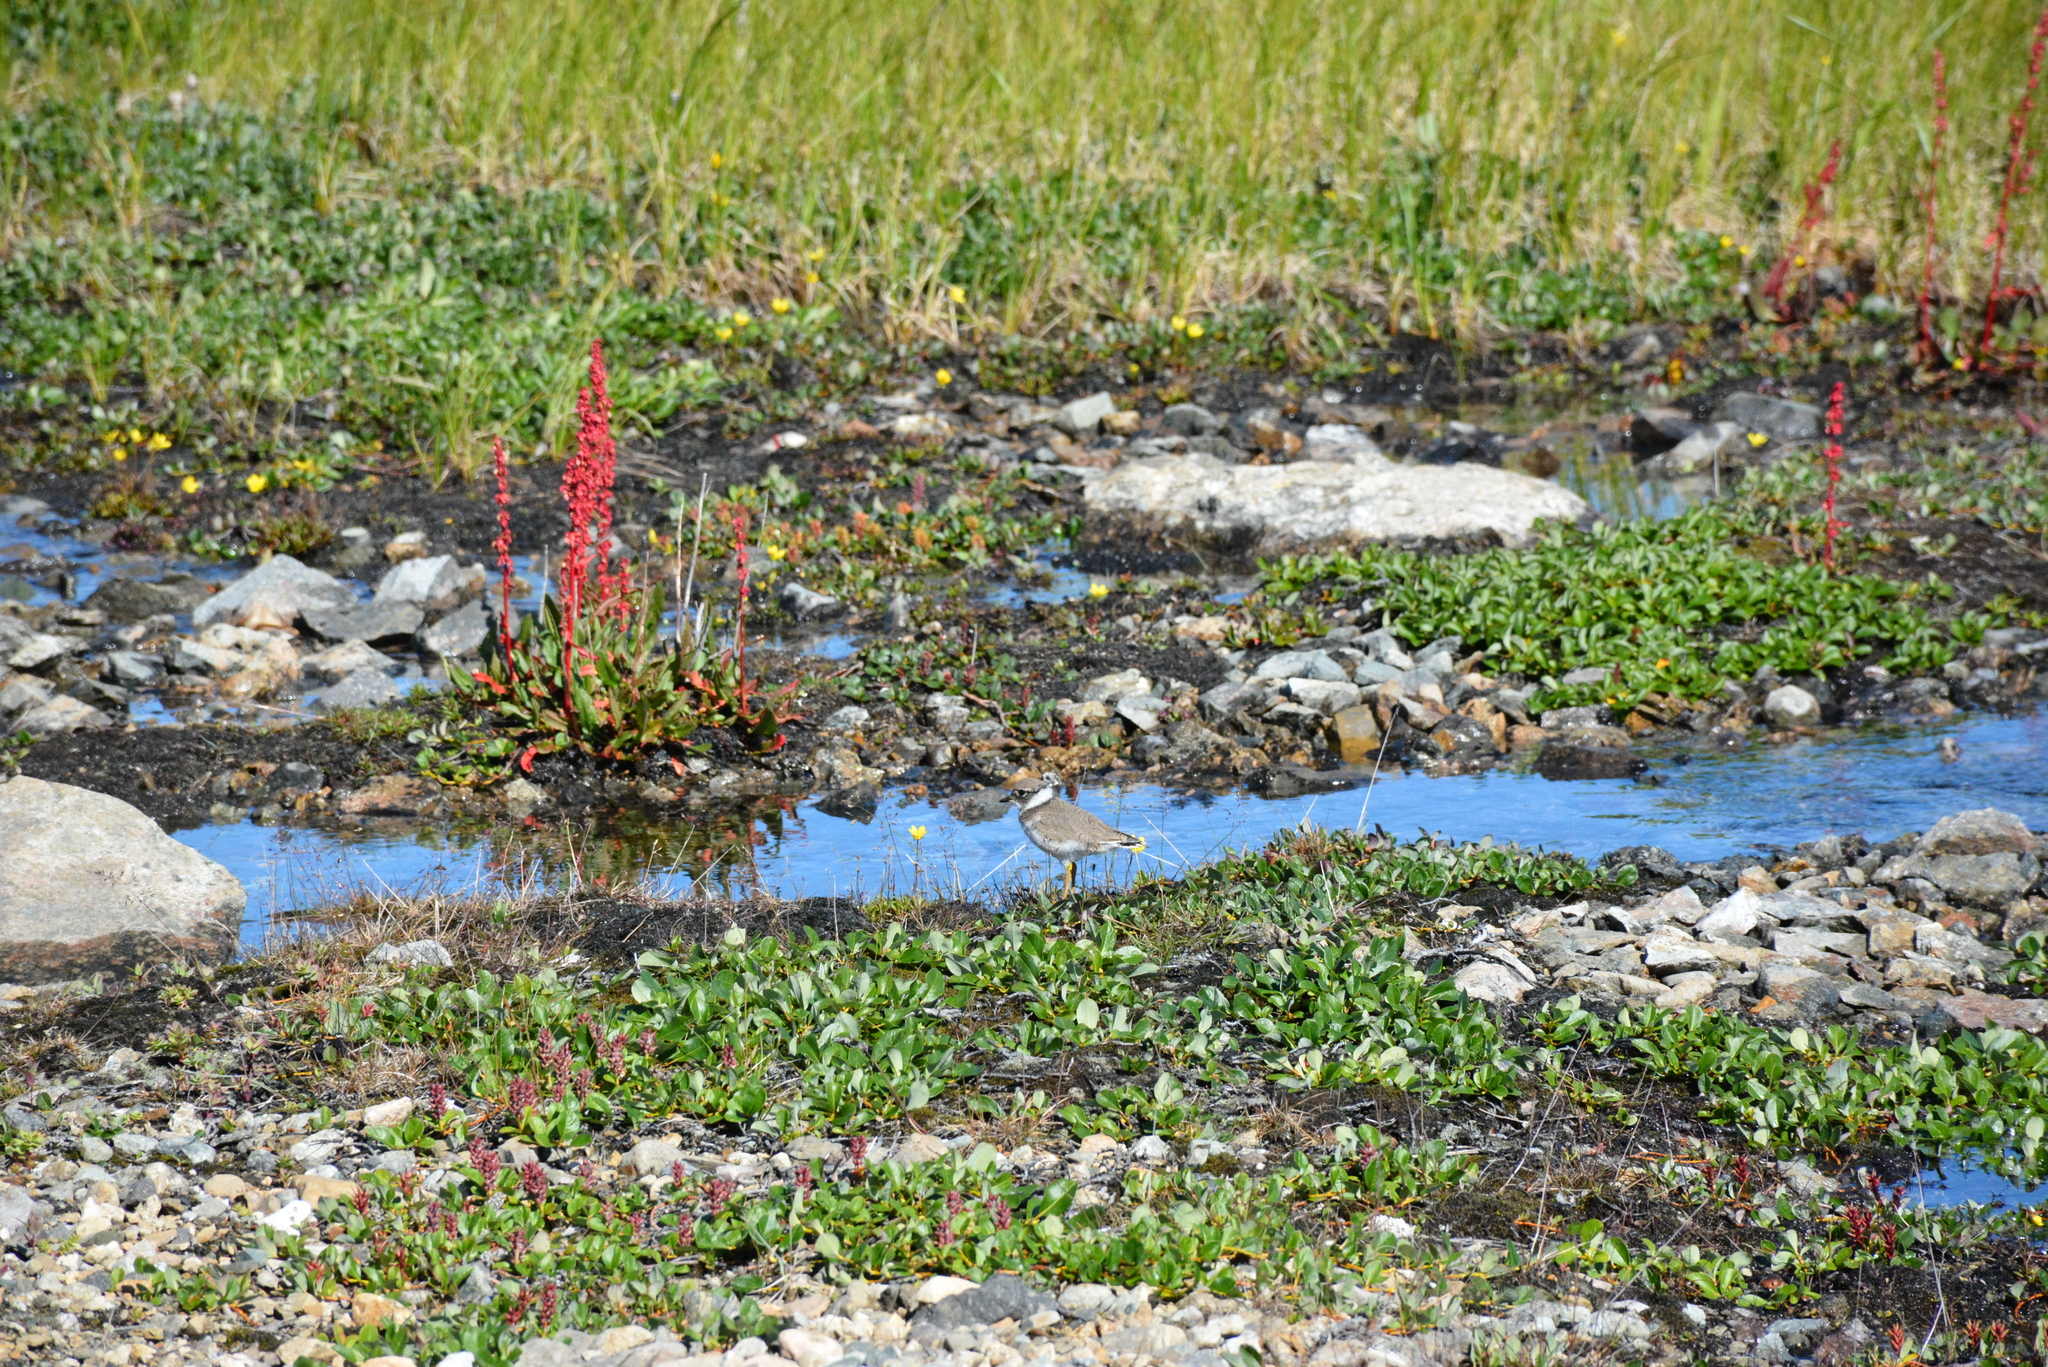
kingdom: Animalia
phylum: Chordata
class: Aves
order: Charadriiformes
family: Charadriidae
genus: Charadrius
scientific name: Charadrius hiaticula
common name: Common ringed plover
